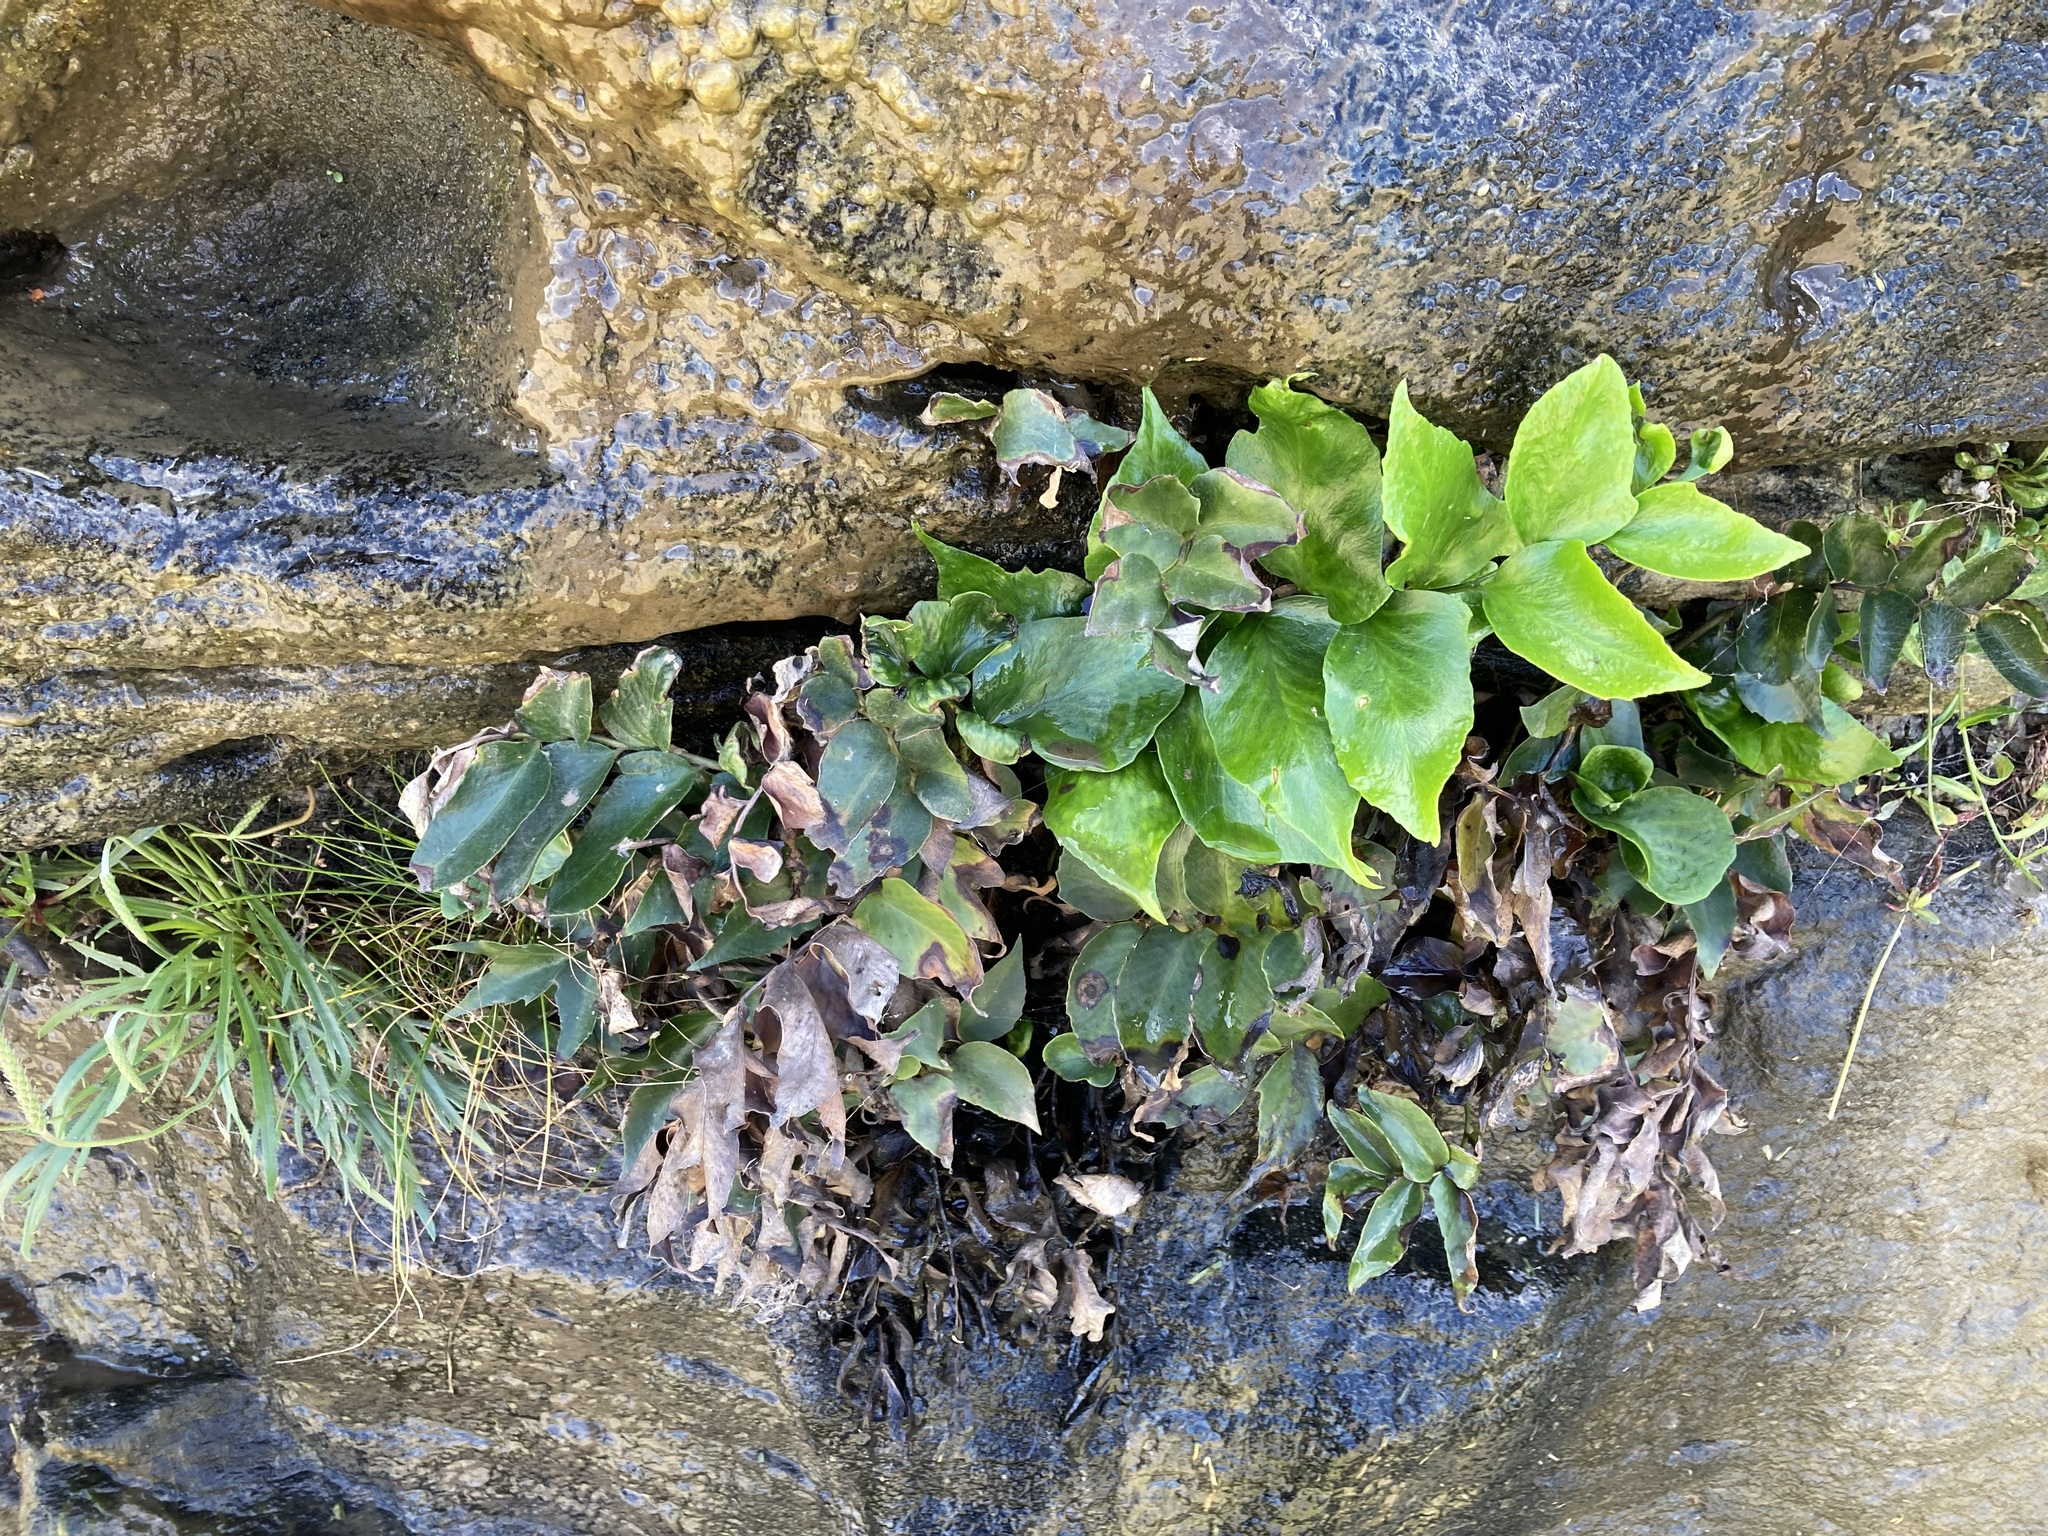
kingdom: Plantae
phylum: Tracheophyta
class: Polypodiopsida
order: Polypodiales
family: Dryopteridaceae
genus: Cyrtomium
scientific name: Cyrtomium falcatum
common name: House holly-fern
